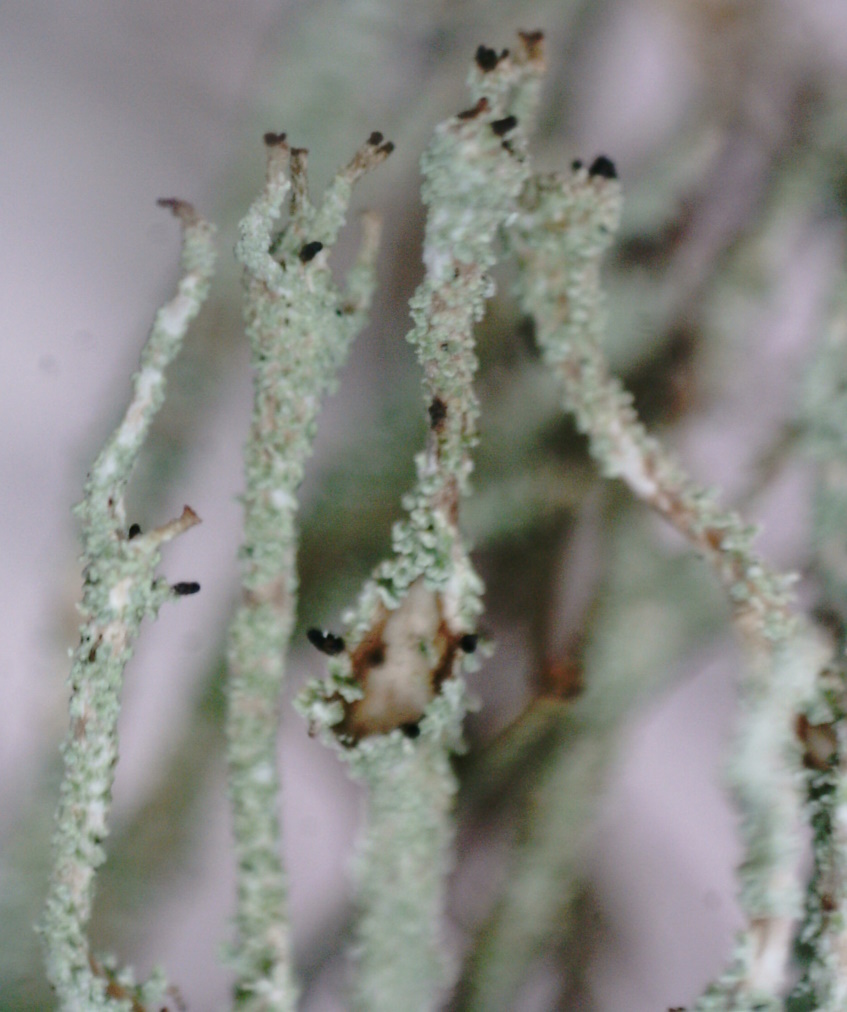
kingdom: Fungi
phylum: Ascomycota
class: Lecanoromycetes
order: Lecanorales
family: Cladoniaceae
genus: Cladonia
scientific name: Cladonia scabriuscula
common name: Mealy forked clad lichen
